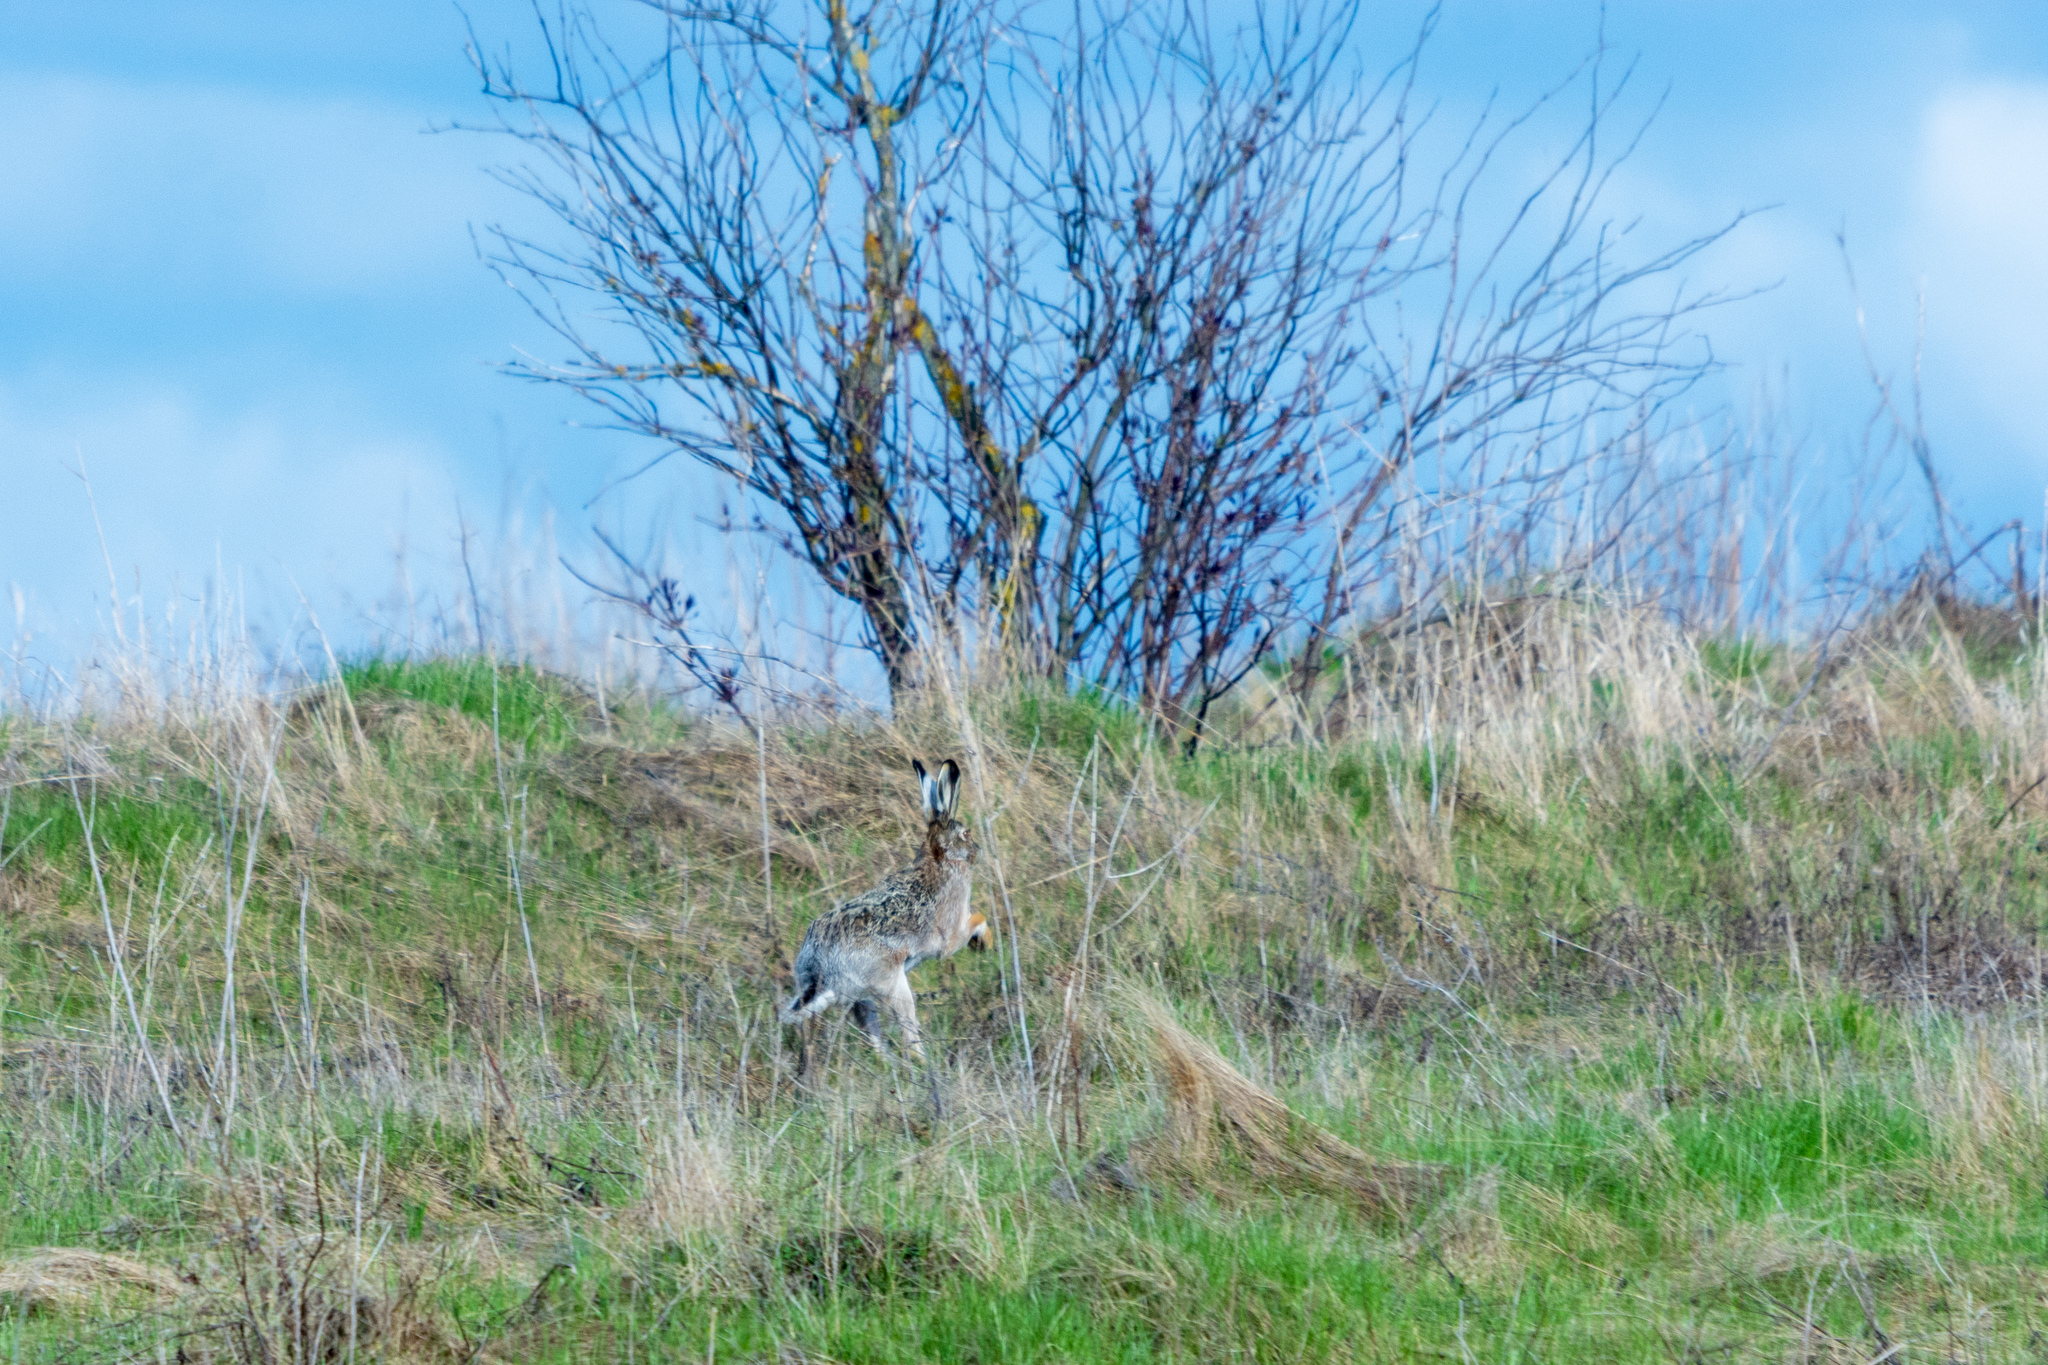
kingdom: Animalia
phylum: Chordata
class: Mammalia
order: Lagomorpha
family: Leporidae
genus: Lepus
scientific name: Lepus europaeus
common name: European hare
